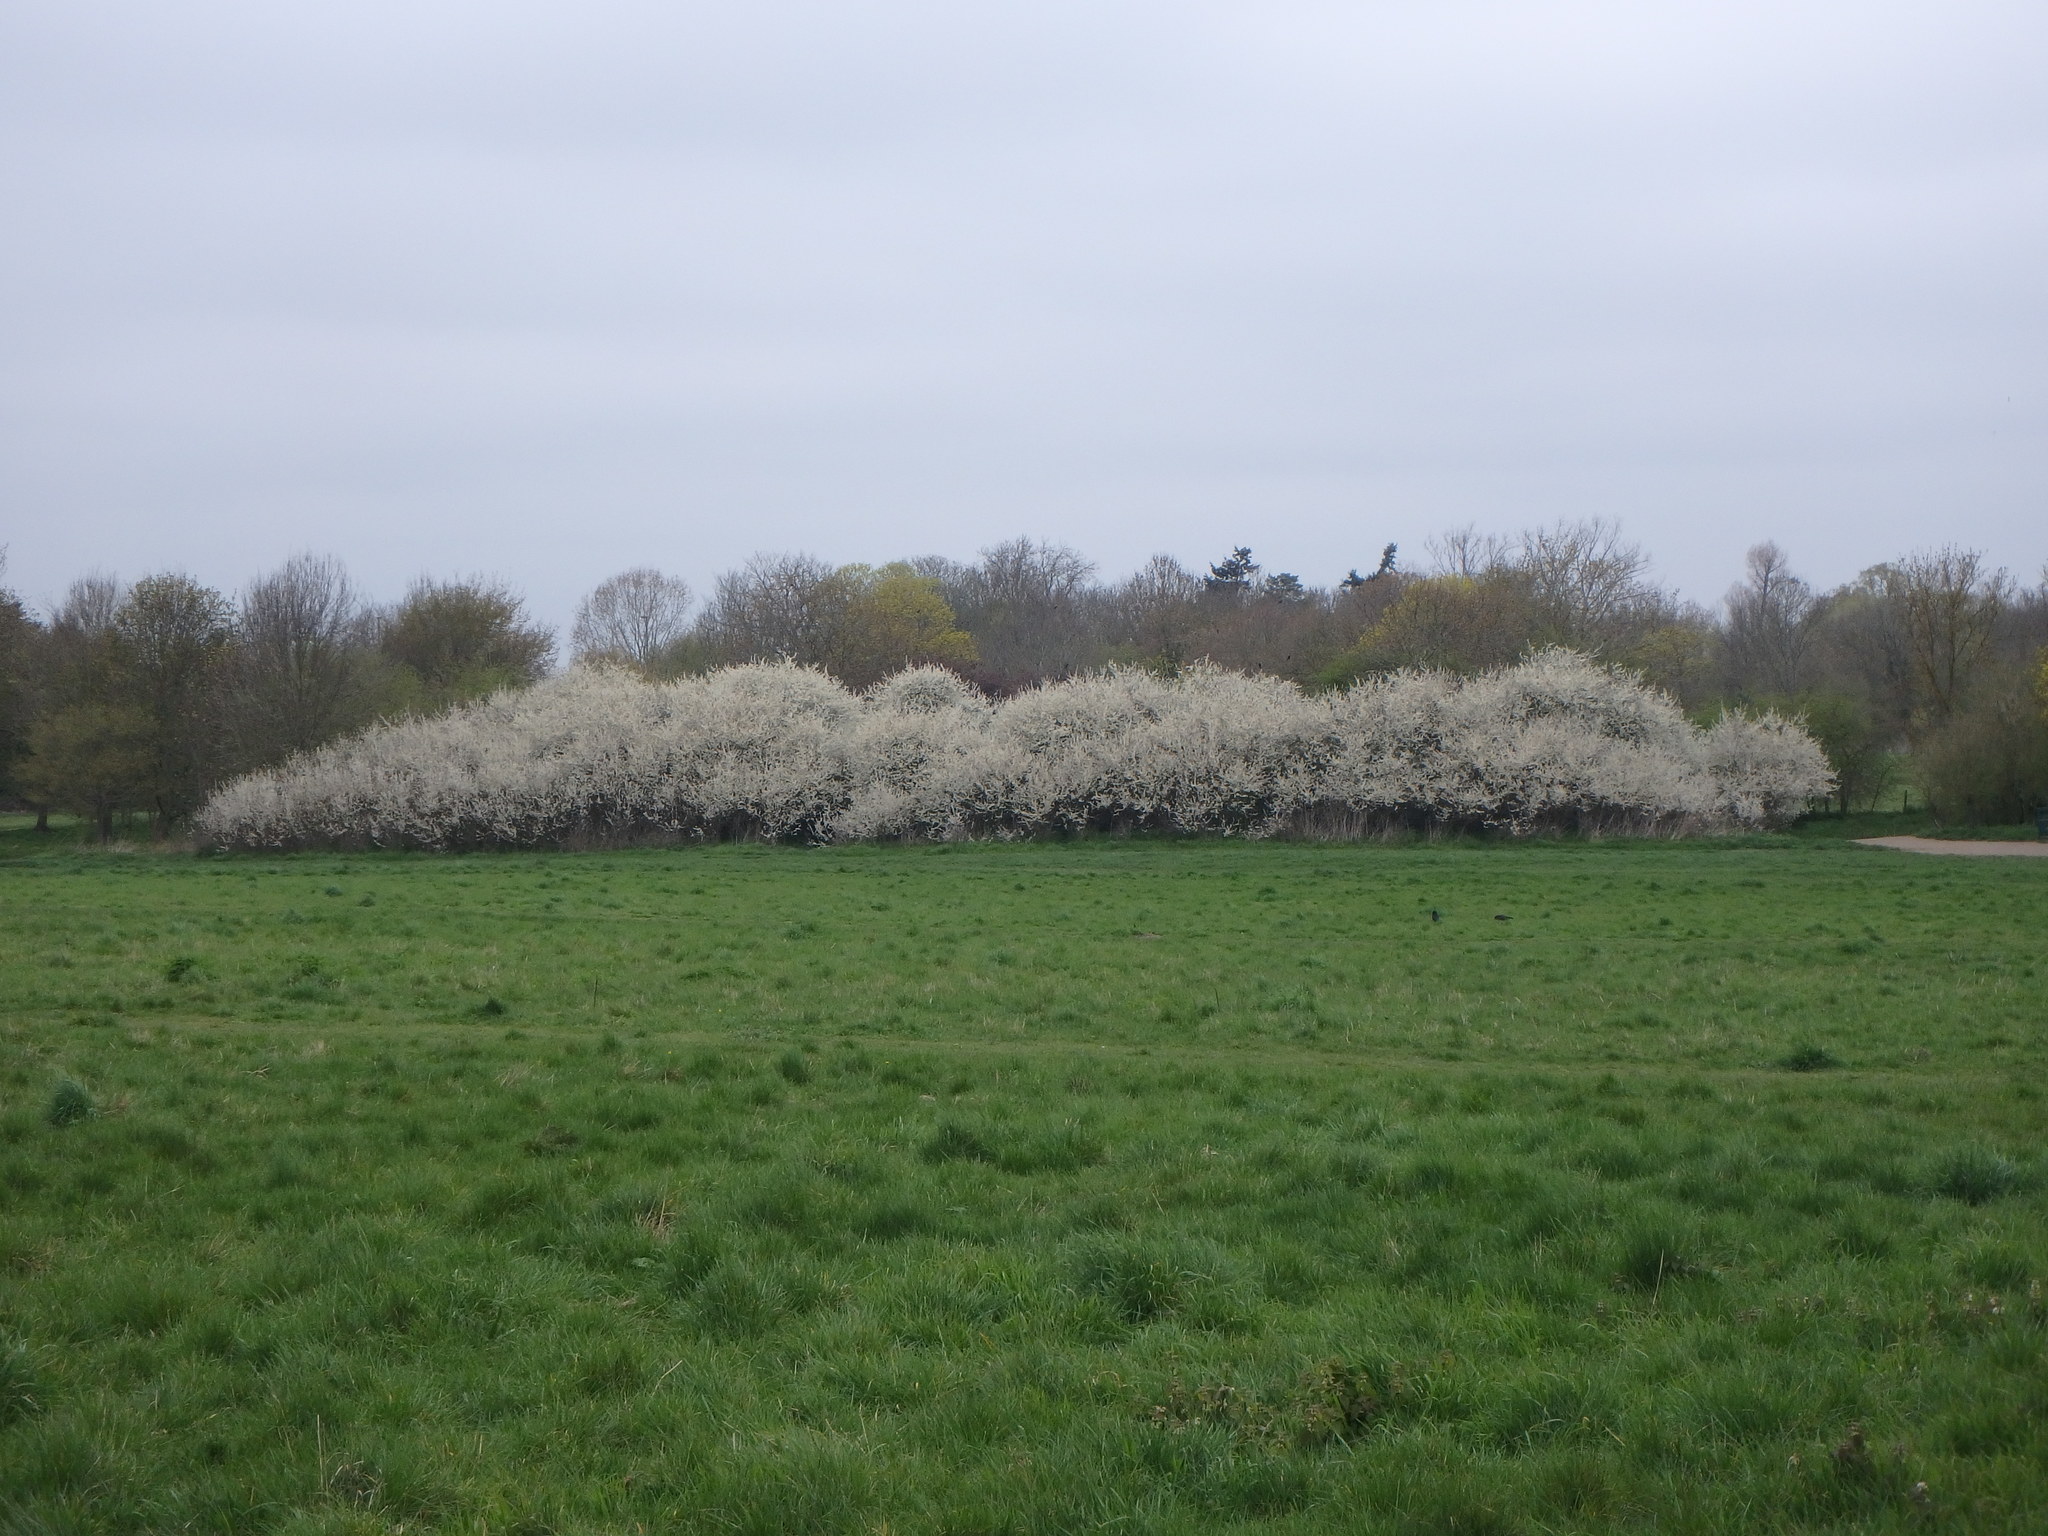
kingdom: Plantae
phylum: Tracheophyta
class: Magnoliopsida
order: Rosales
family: Rosaceae
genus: Prunus
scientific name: Prunus spinosa
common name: Blackthorn
